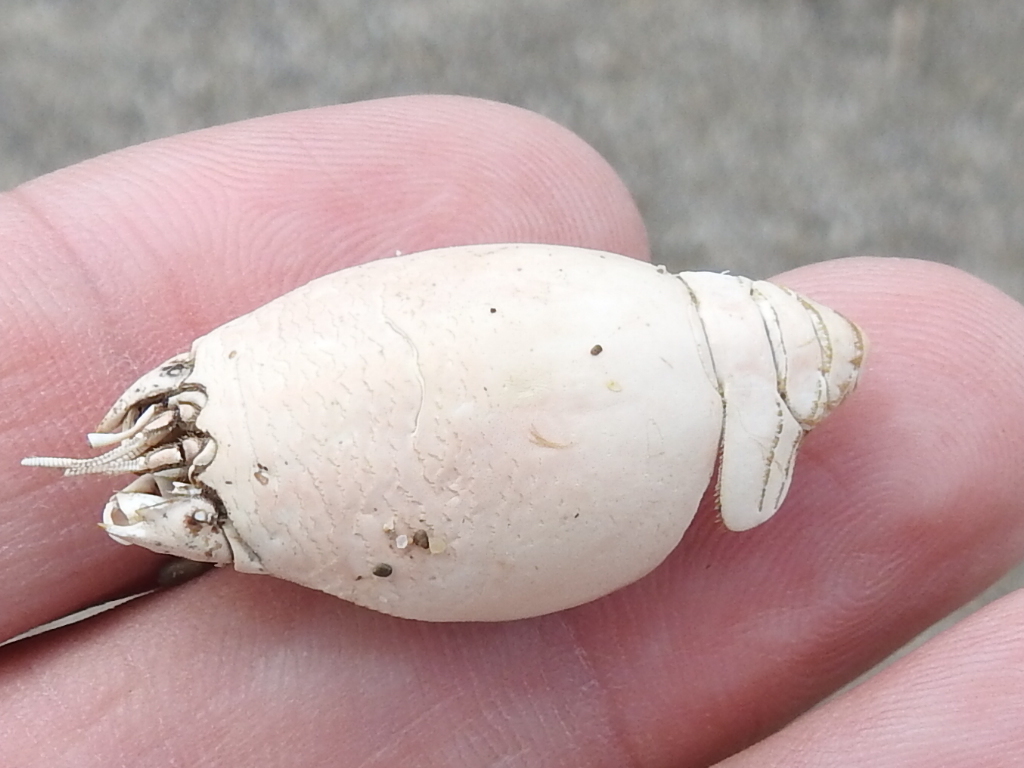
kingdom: Animalia
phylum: Arthropoda
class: Malacostraca
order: Decapoda
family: Hippidae
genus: Emerita
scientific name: Emerita analoga
